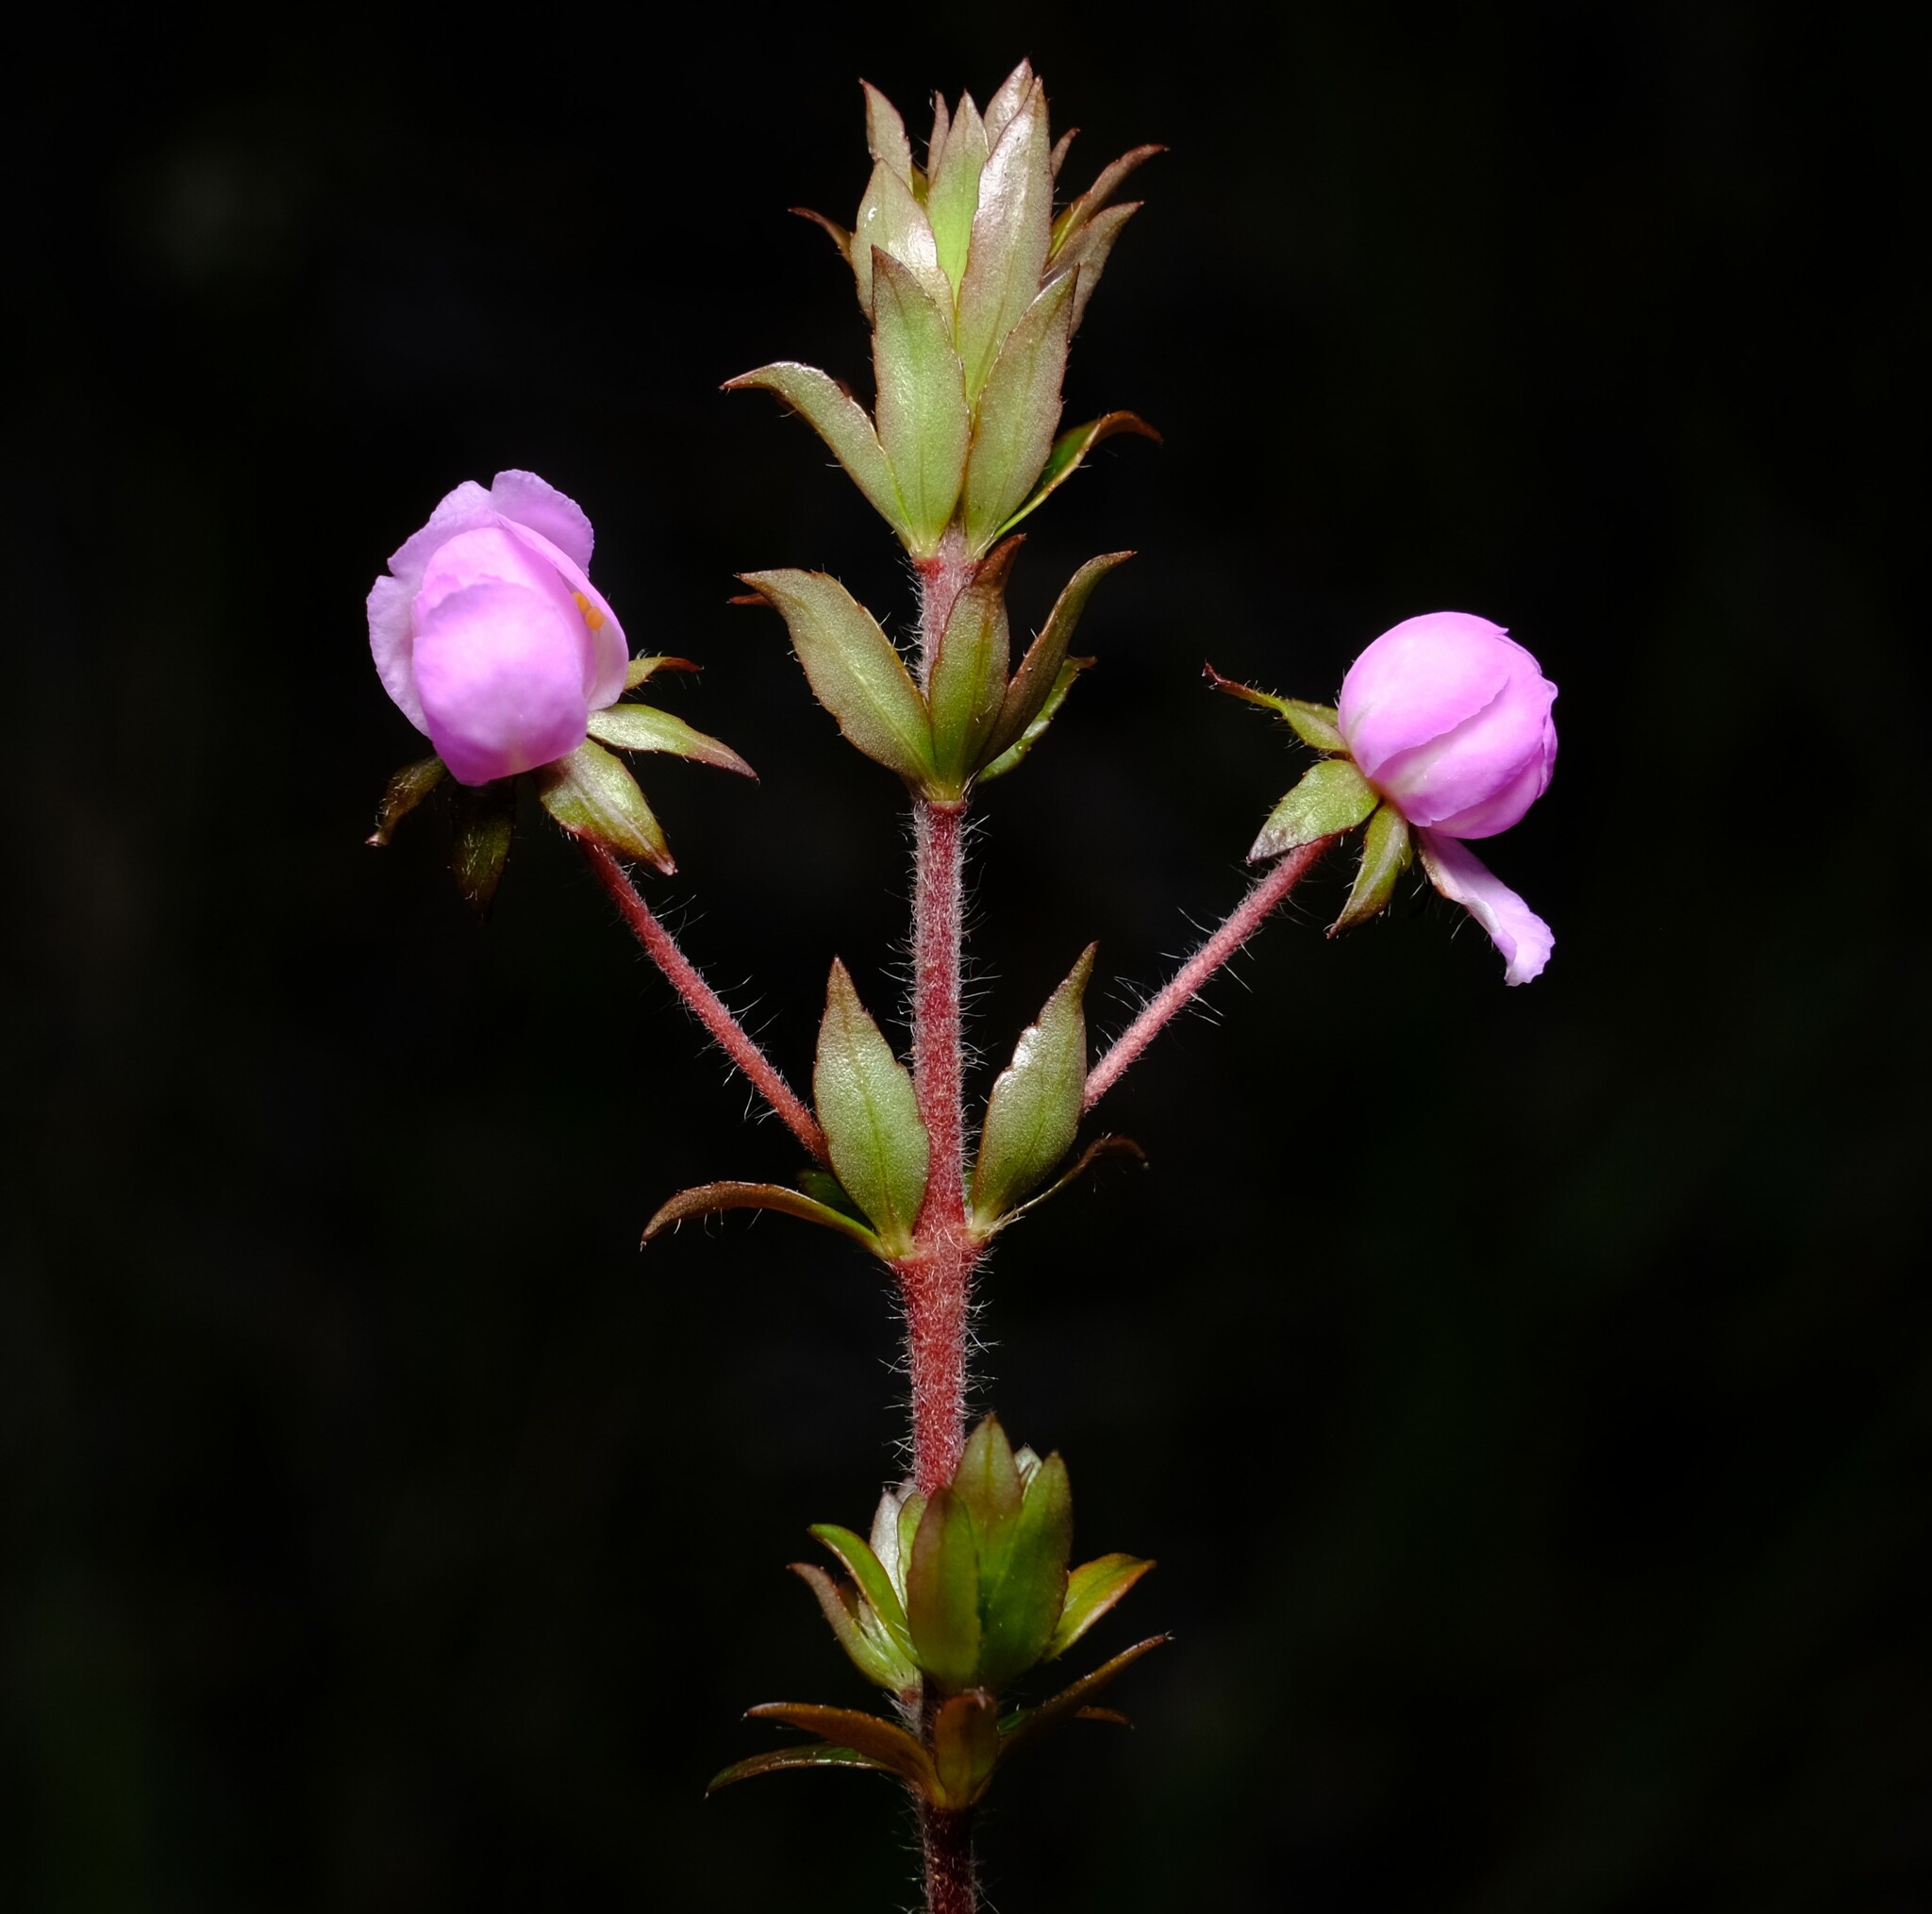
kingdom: Plantae
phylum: Tracheophyta
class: Magnoliopsida
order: Oxalidales
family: Cunoniaceae
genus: Bauera
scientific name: Bauera rubioides
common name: River-rose
